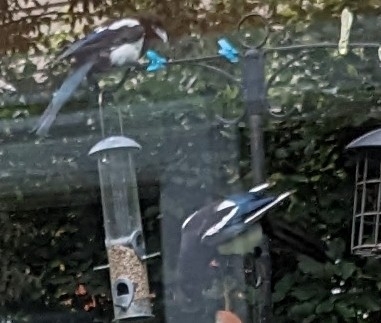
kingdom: Animalia
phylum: Chordata
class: Aves
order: Passeriformes
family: Corvidae
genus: Pica
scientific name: Pica pica
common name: Eurasian magpie
